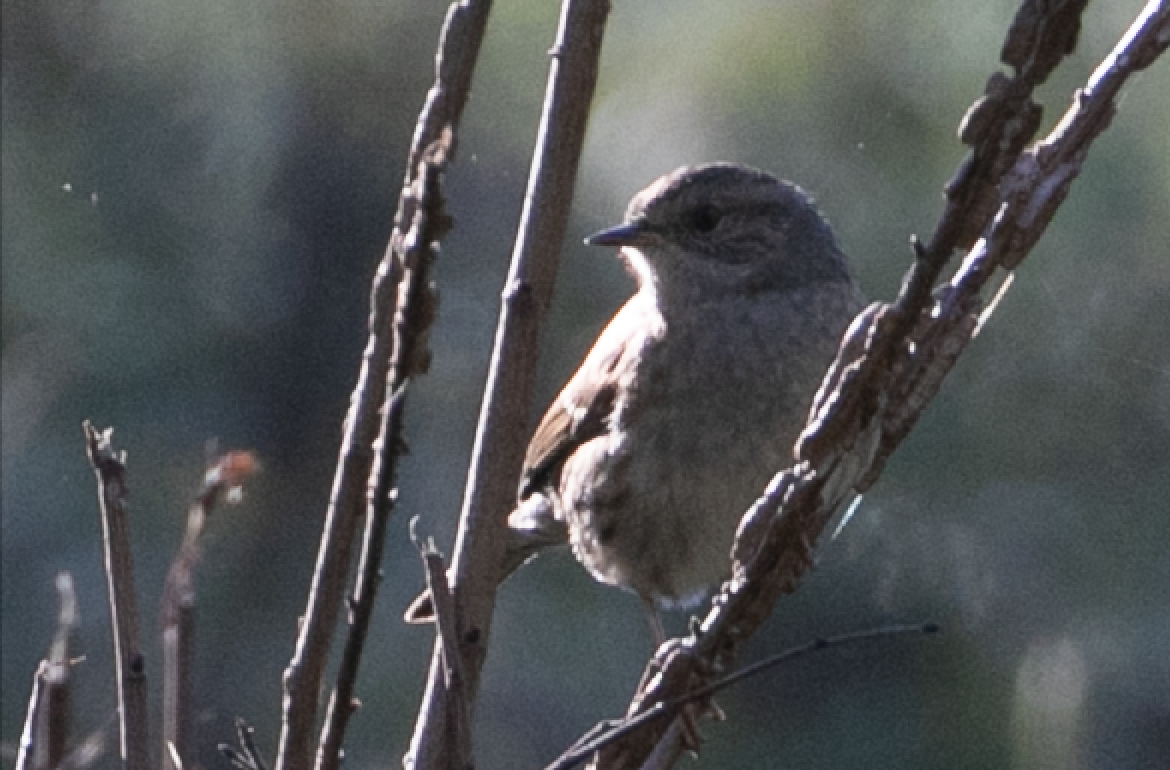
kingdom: Animalia
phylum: Chordata
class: Aves
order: Passeriformes
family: Prunellidae
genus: Prunella
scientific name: Prunella modularis
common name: Dunnock
